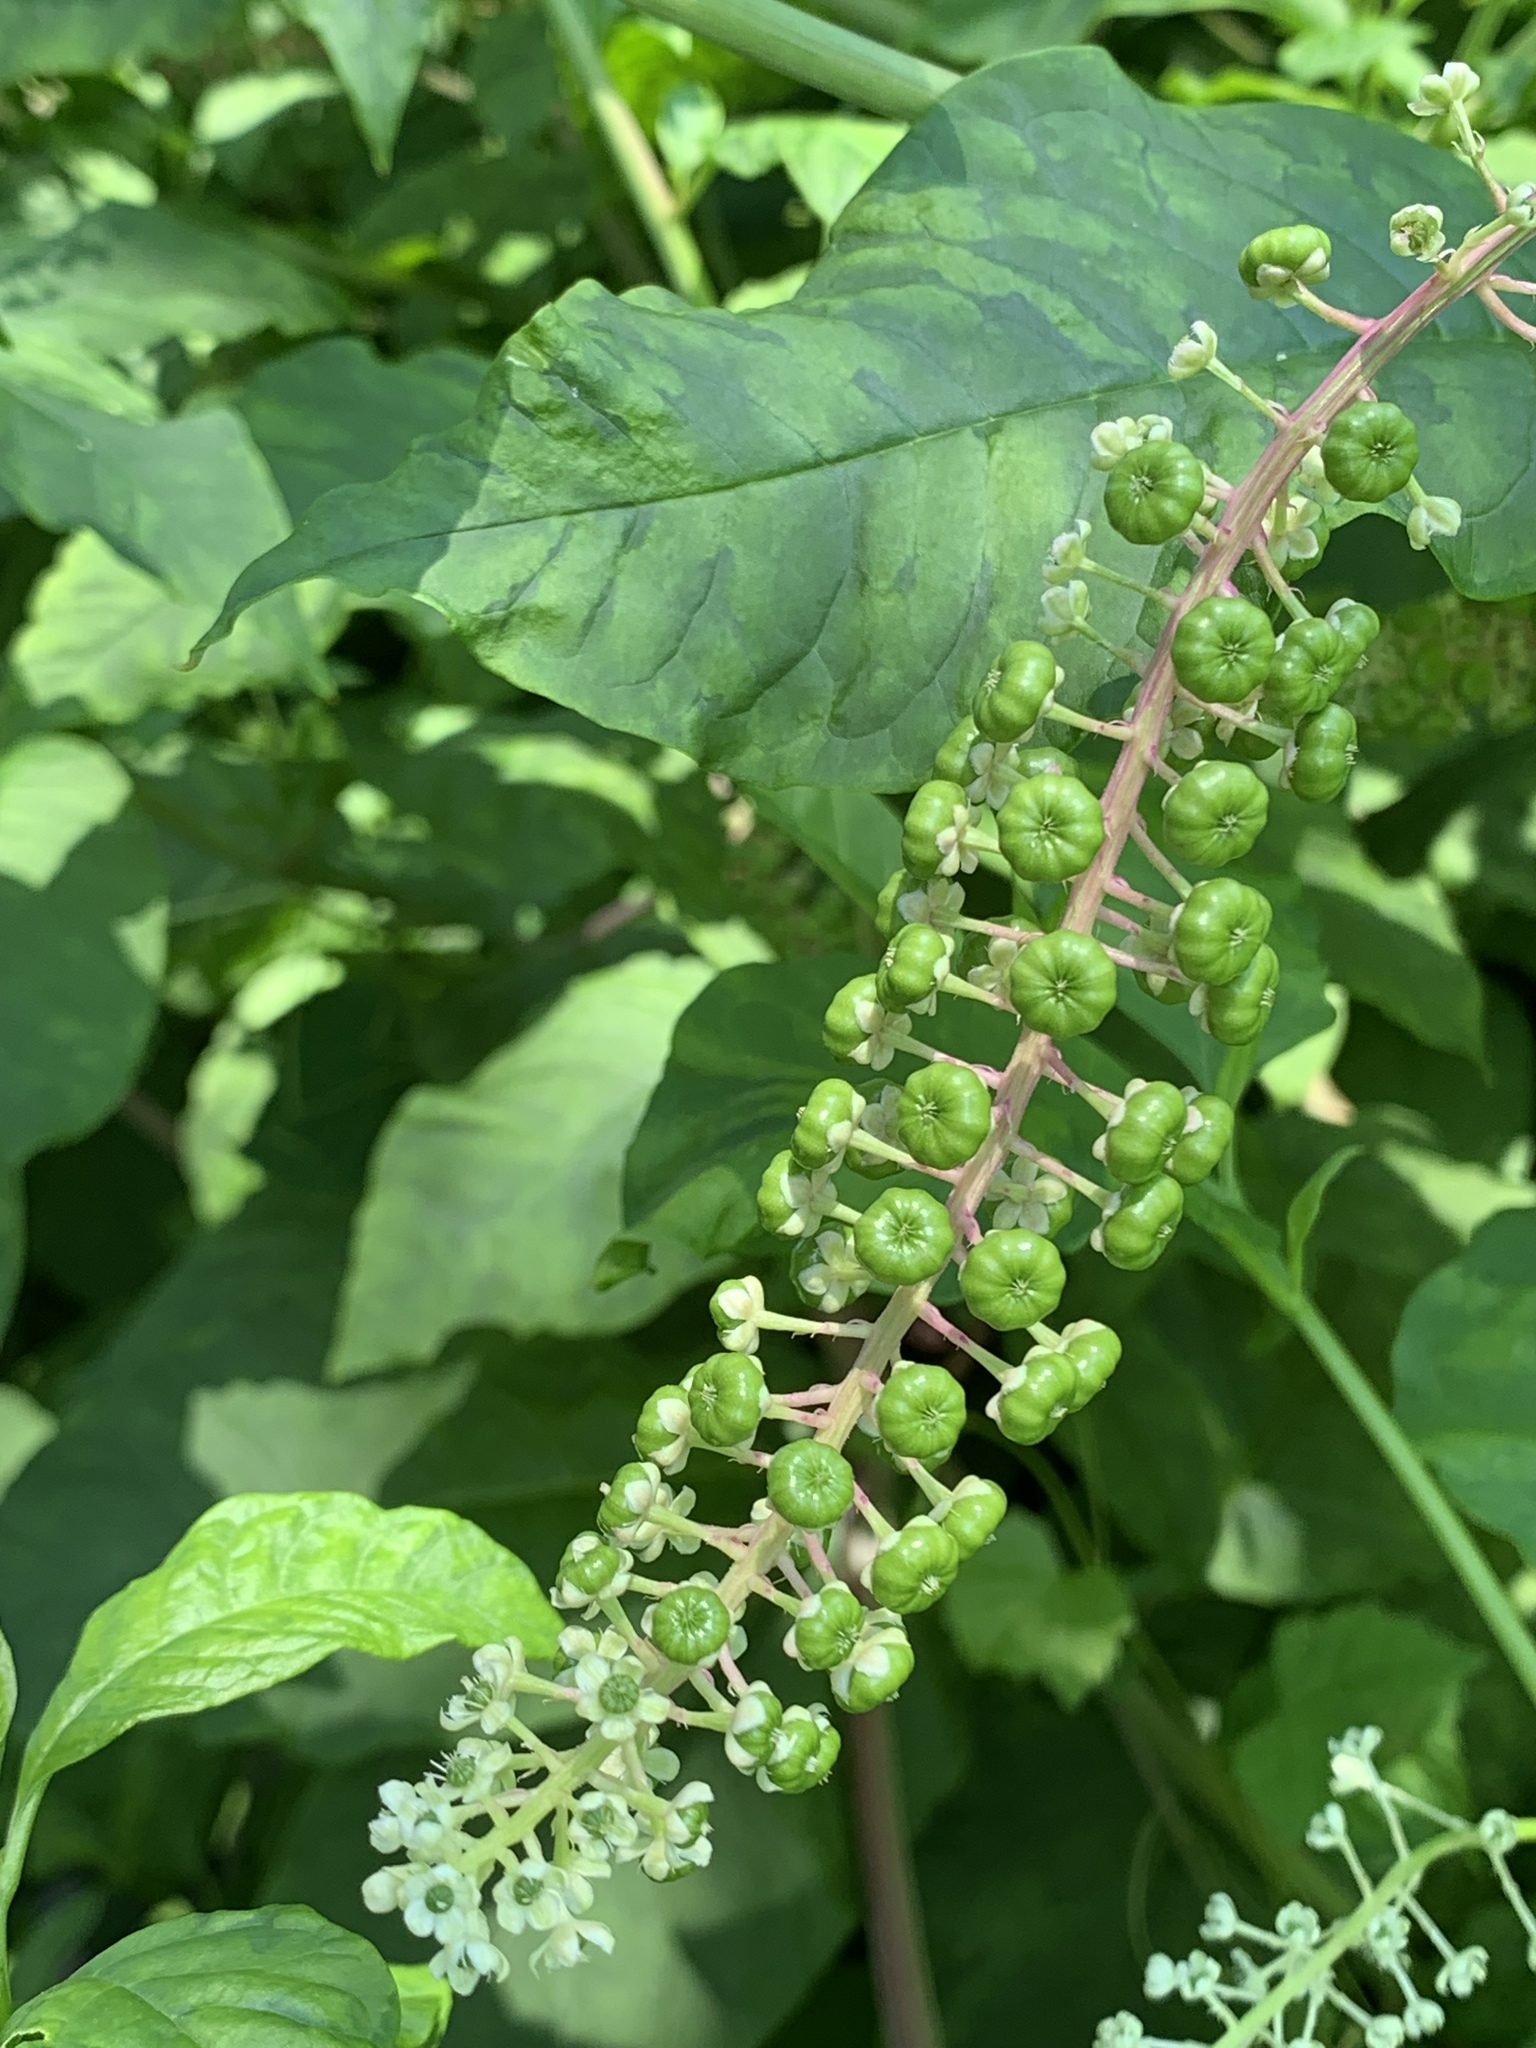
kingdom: Plantae
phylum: Tracheophyta
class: Magnoliopsida
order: Caryophyllales
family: Phytolaccaceae
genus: Phytolacca
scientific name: Phytolacca americana
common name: American pokeweed
